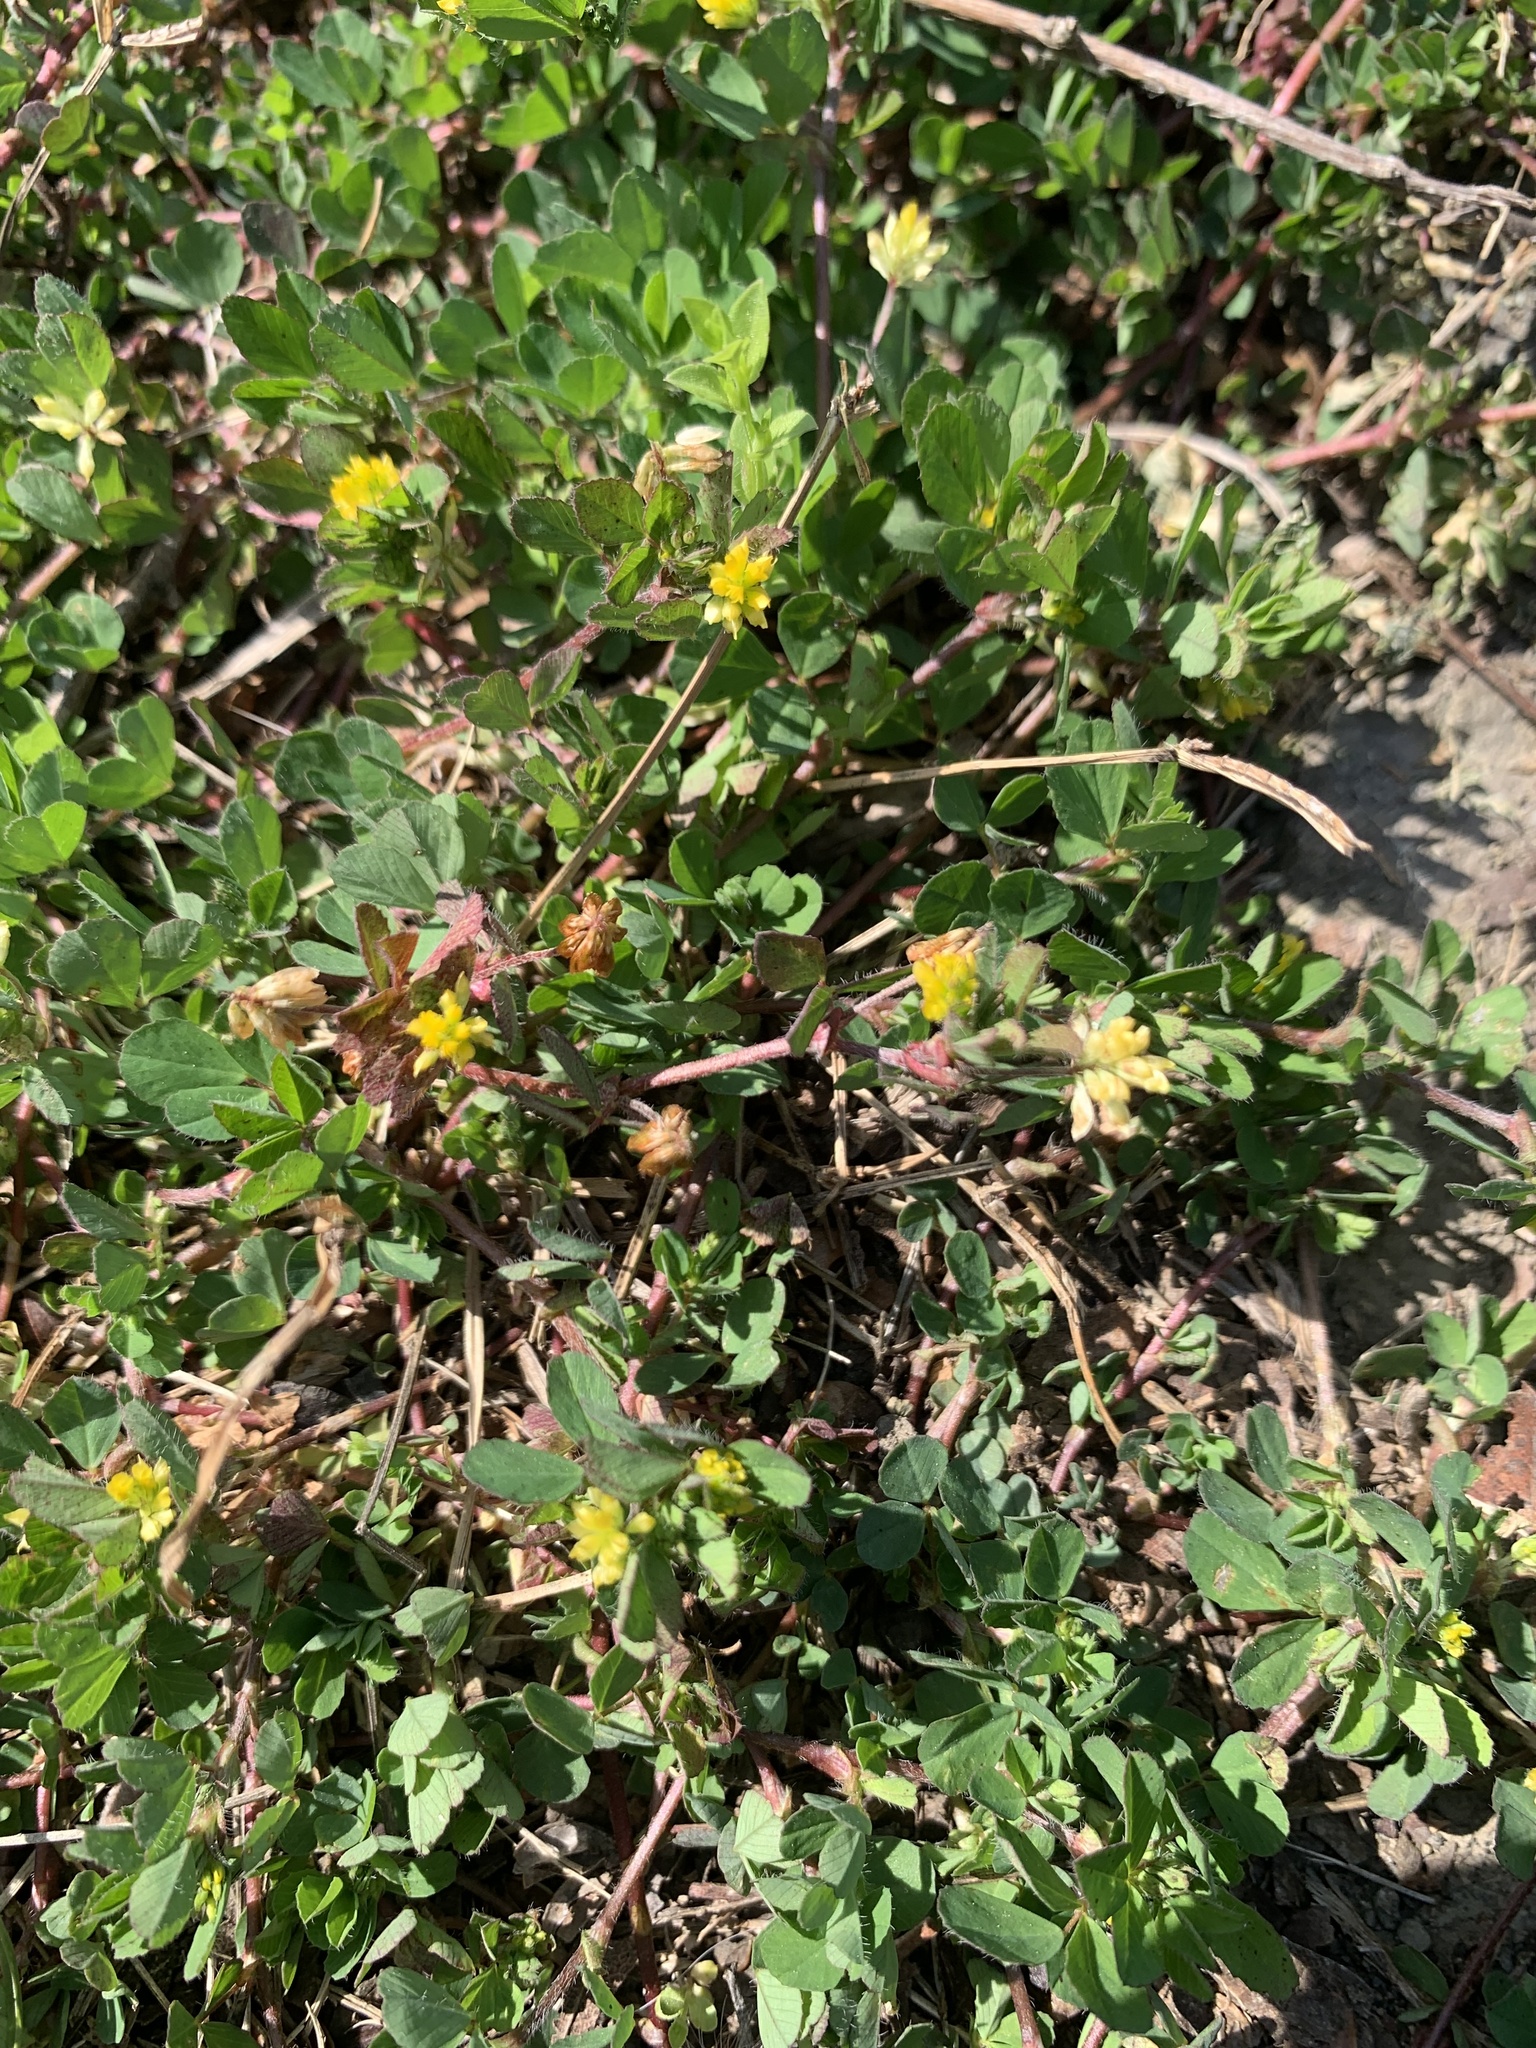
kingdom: Plantae
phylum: Tracheophyta
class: Magnoliopsida
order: Fabales
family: Fabaceae
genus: Trifolium
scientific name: Trifolium dubium
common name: Suckling clover
